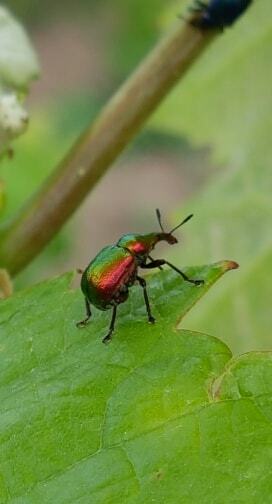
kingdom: Animalia
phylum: Arthropoda
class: Insecta
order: Coleoptera
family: Attelabidae
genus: Byctiscus
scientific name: Byctiscus betulae
